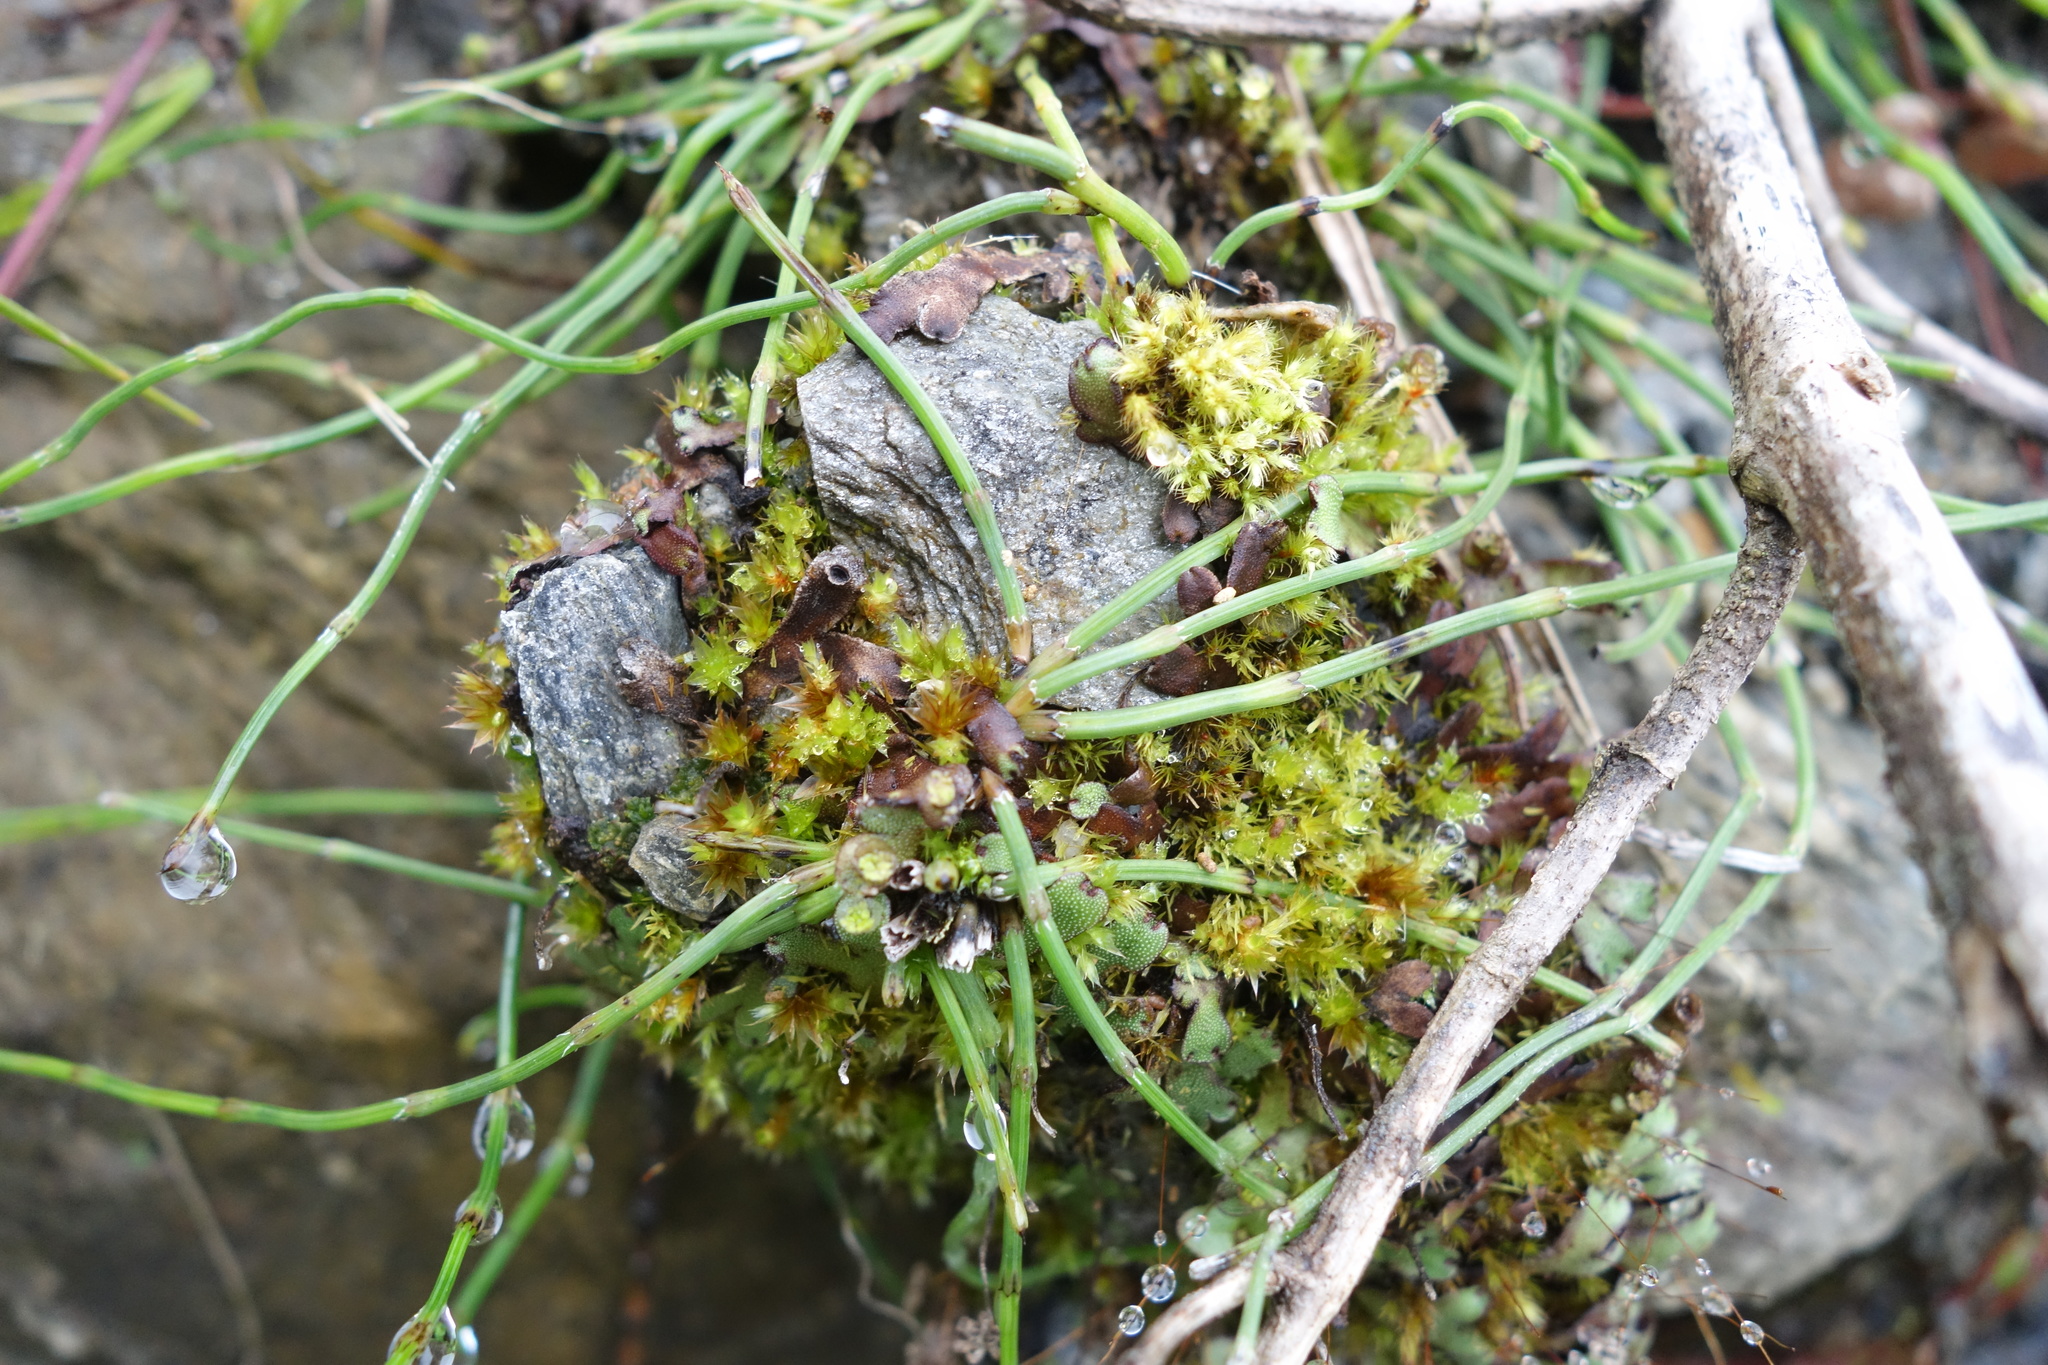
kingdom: Plantae
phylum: Tracheophyta
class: Polypodiopsida
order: Equisetales
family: Equisetaceae
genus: Equisetum
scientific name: Equisetum ramosissimum
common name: Branched horsetail
